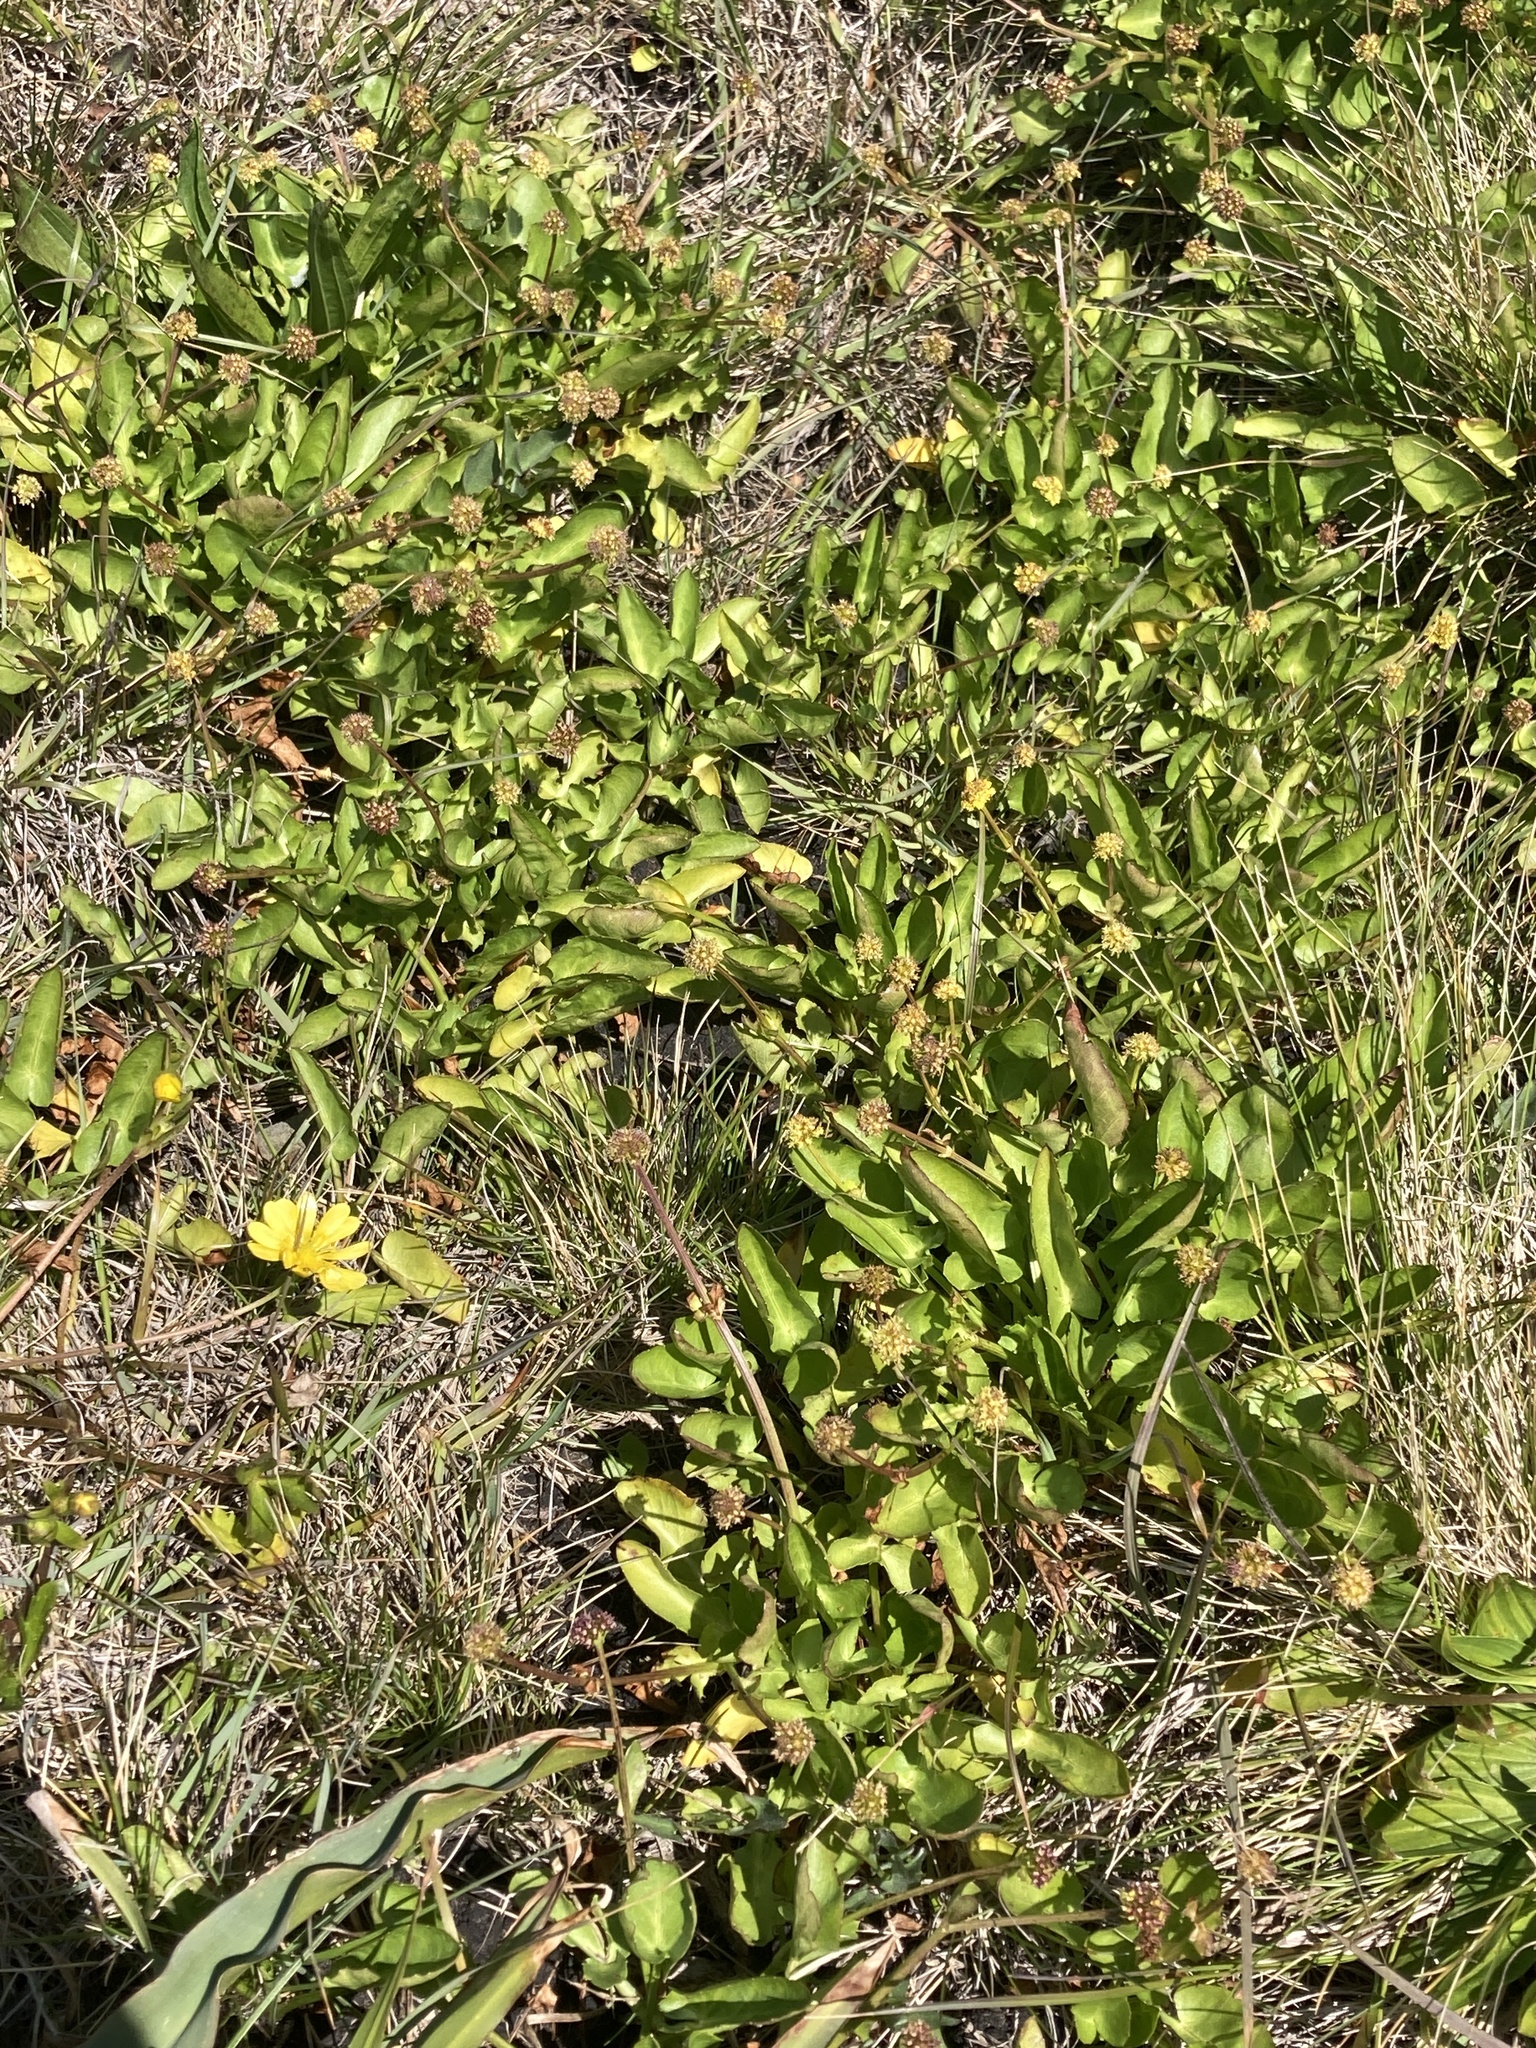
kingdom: Plantae
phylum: Tracheophyta
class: Magnoliopsida
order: Apiales
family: Apiaceae
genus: Sanicula
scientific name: Sanicula maritima
